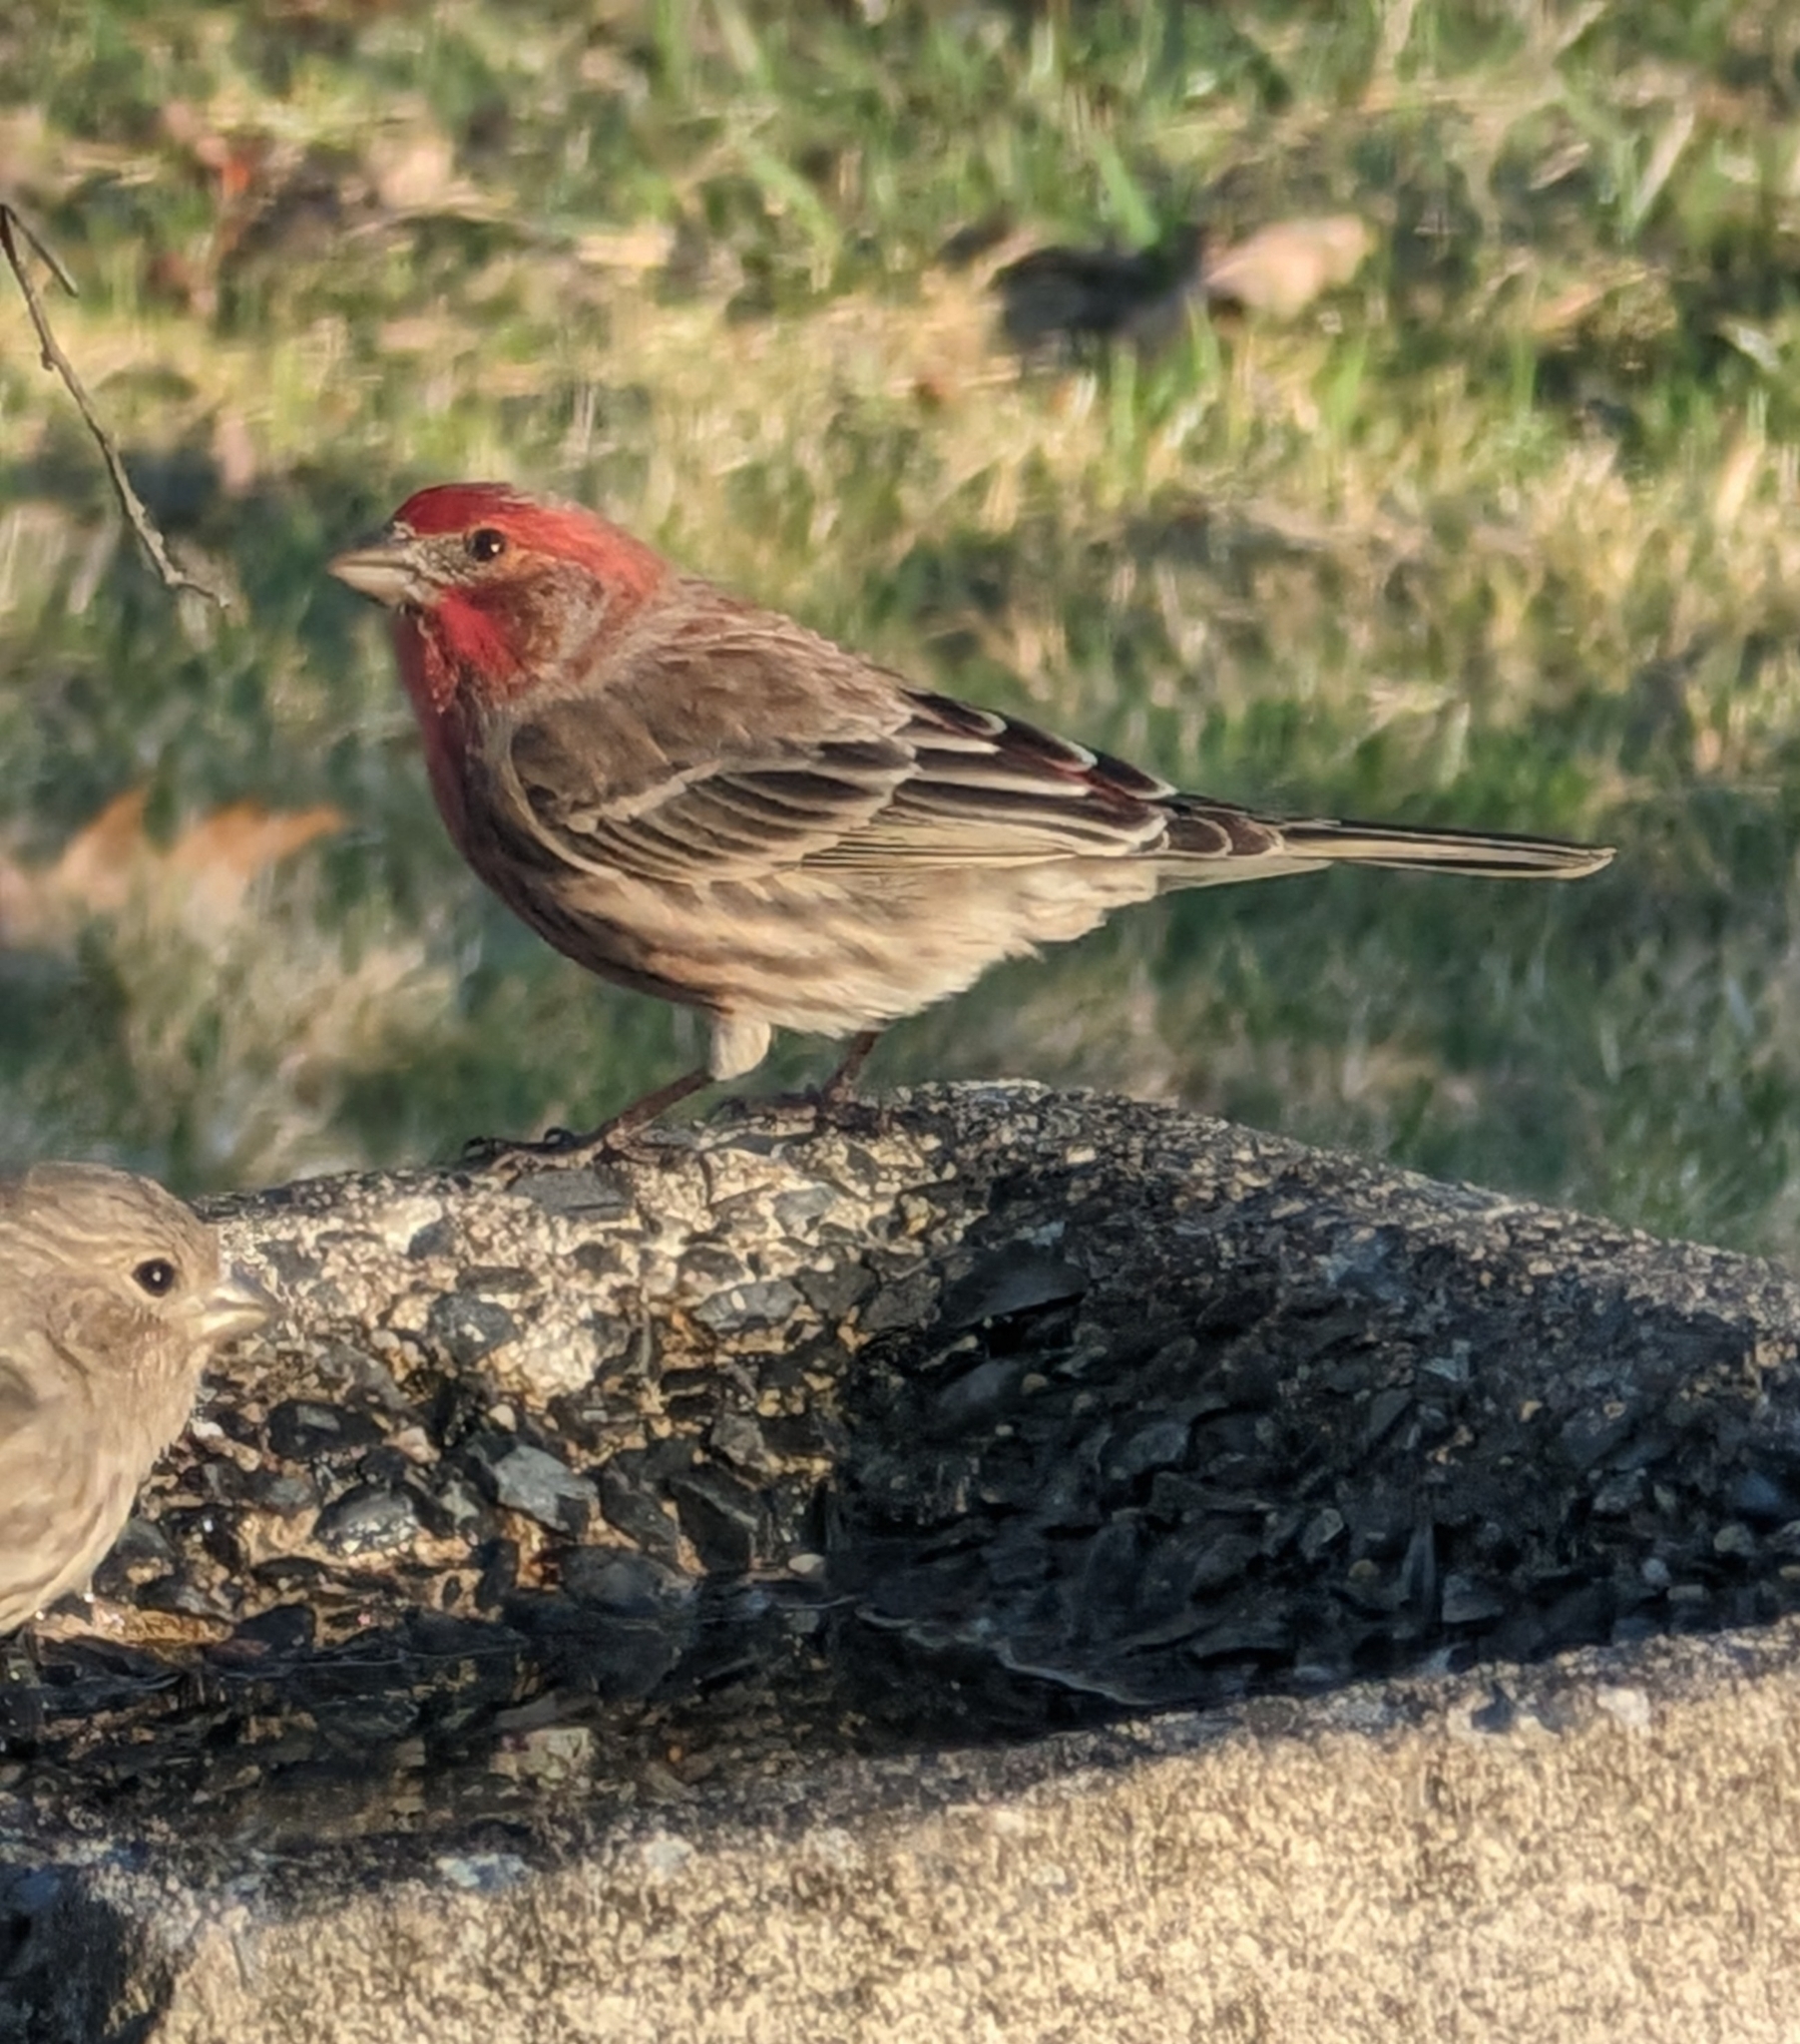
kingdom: Animalia
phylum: Chordata
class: Aves
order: Passeriformes
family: Fringillidae
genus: Haemorhous
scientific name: Haemorhous mexicanus
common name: House finch
